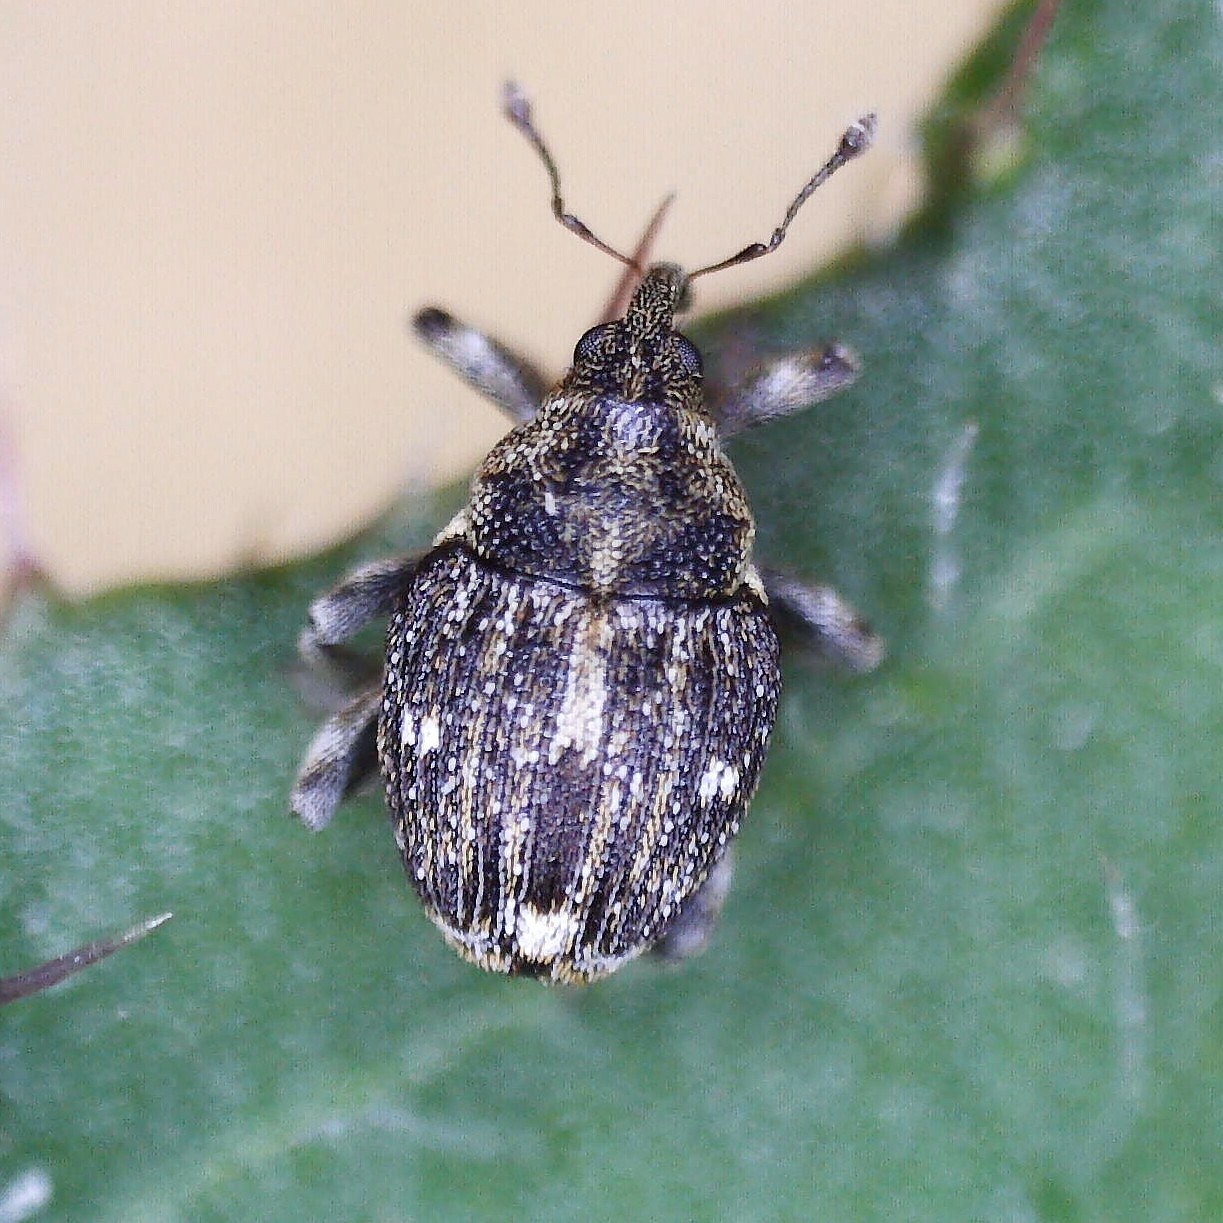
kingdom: Animalia
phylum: Arthropoda
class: Insecta
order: Coleoptera
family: Curculionidae
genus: Nedyus
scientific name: Nedyus quadrimaculatus
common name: Small nettle weevil
